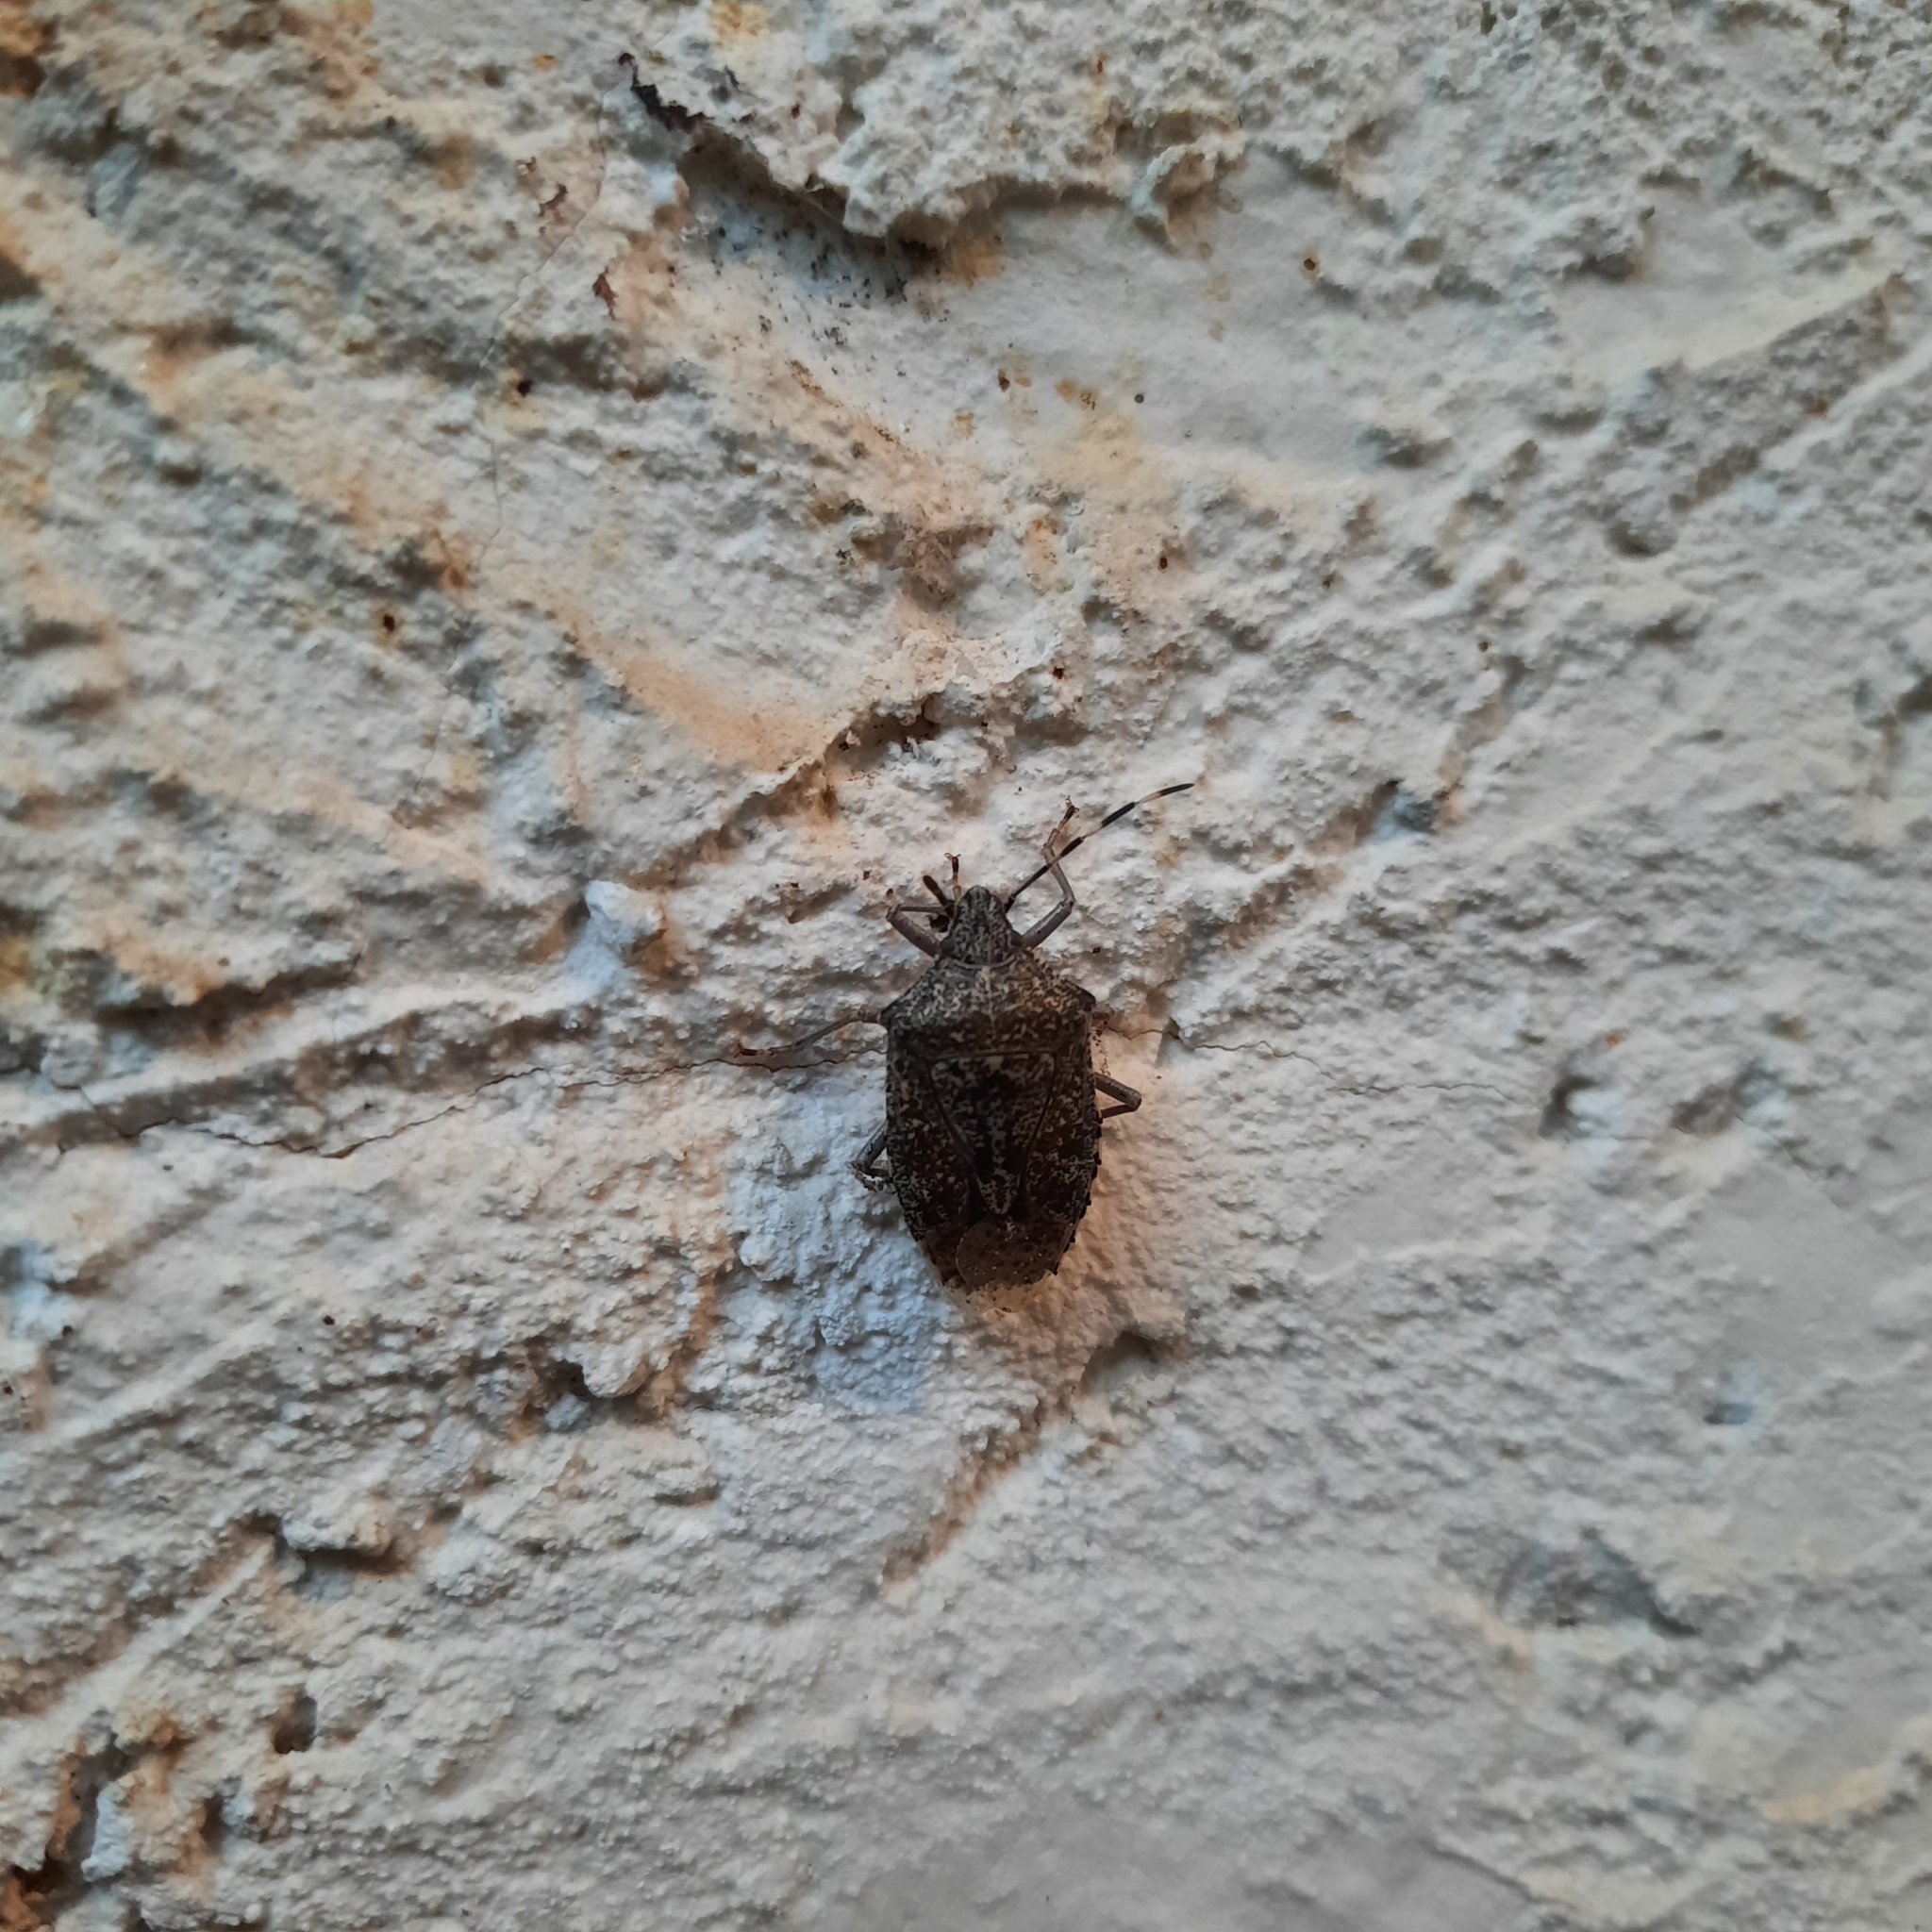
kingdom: Animalia
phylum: Arthropoda
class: Insecta
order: Hemiptera
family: Pentatomidae
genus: Rhaphigaster
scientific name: Rhaphigaster nebulosa
